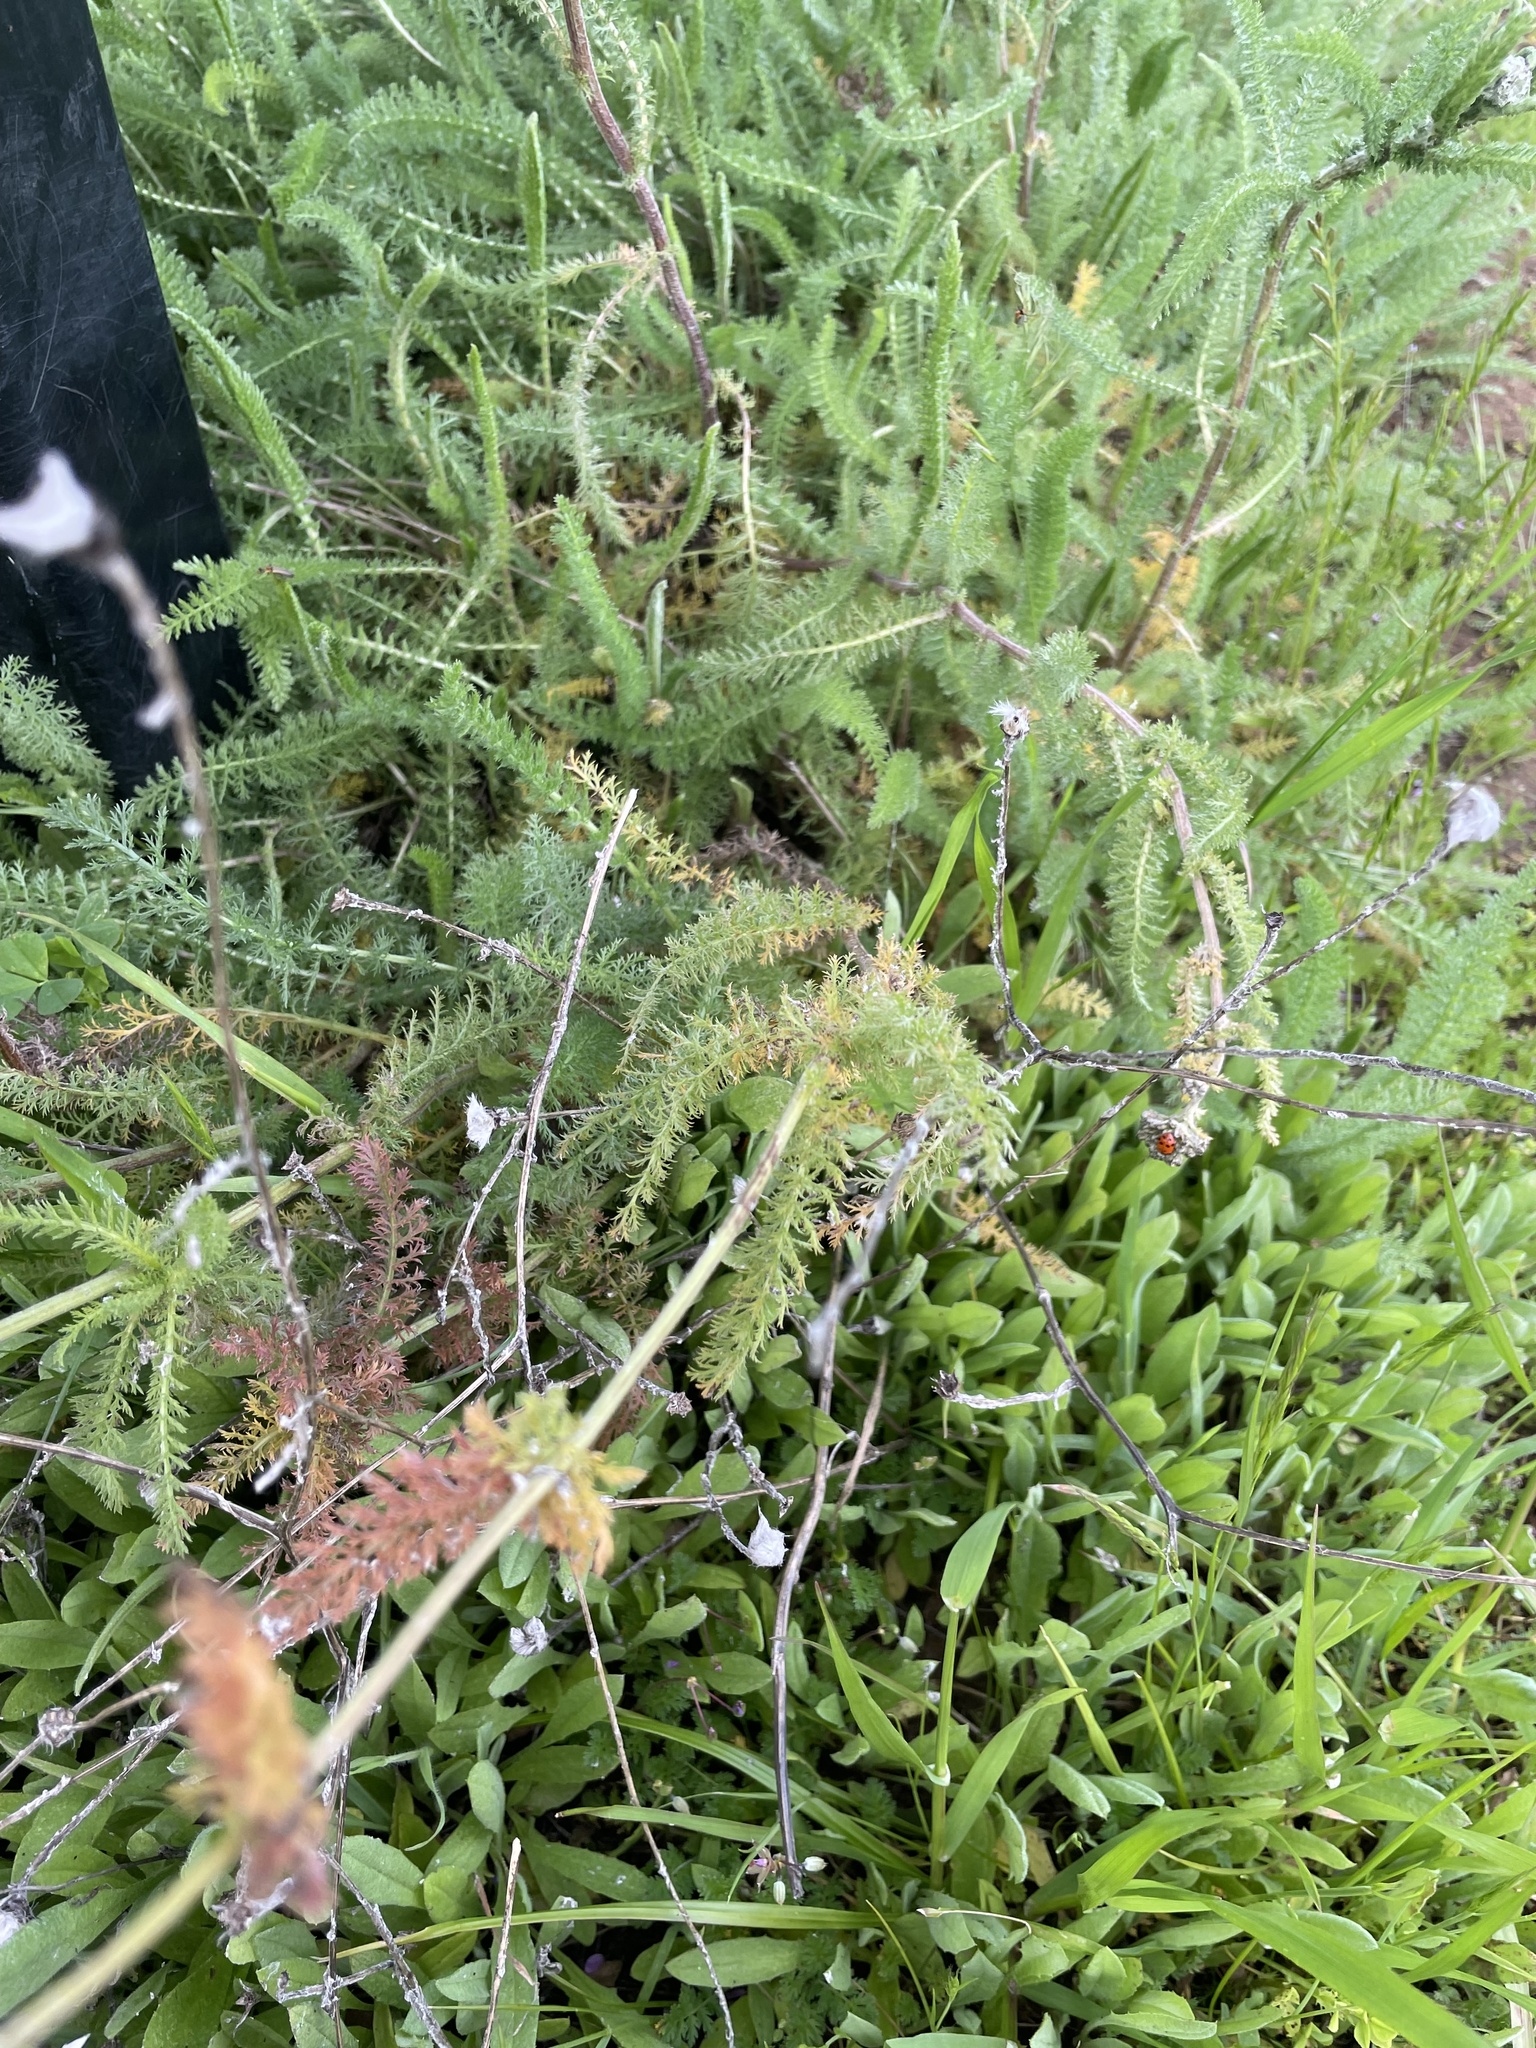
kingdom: Plantae
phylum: Tracheophyta
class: Magnoliopsida
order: Asterales
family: Asteraceae
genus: Achillea
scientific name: Achillea millefolium
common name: Yarrow
